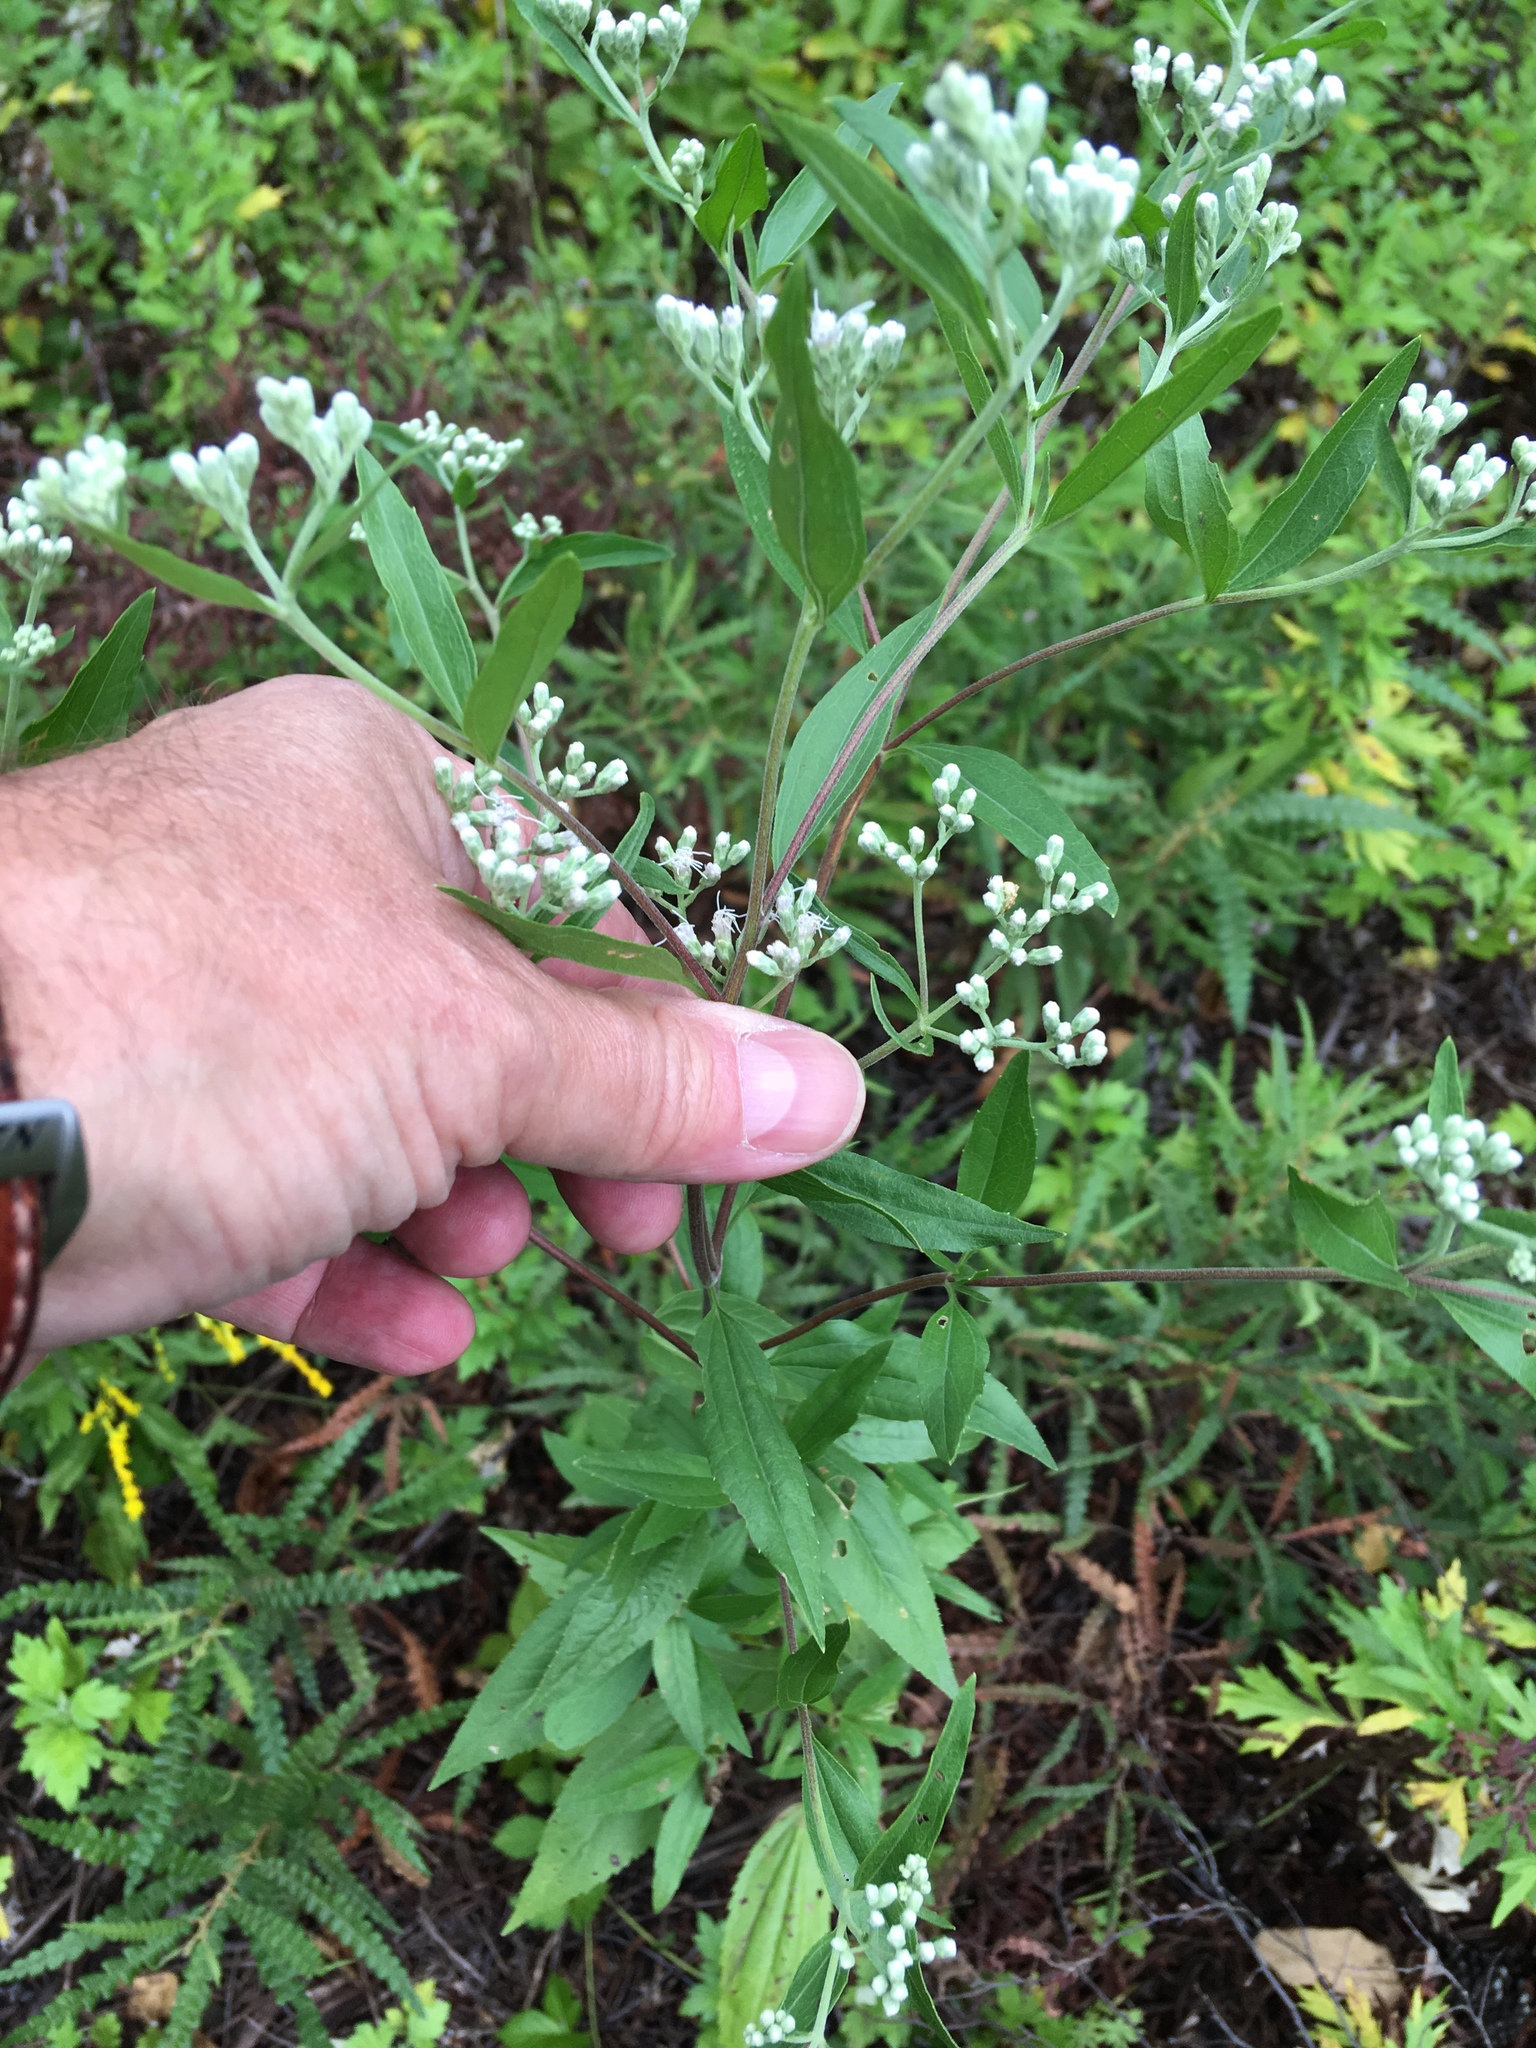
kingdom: Plantae
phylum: Tracheophyta
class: Magnoliopsida
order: Asterales
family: Asteraceae
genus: Eupatorium
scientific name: Eupatorium serotinum
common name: Late boneset
